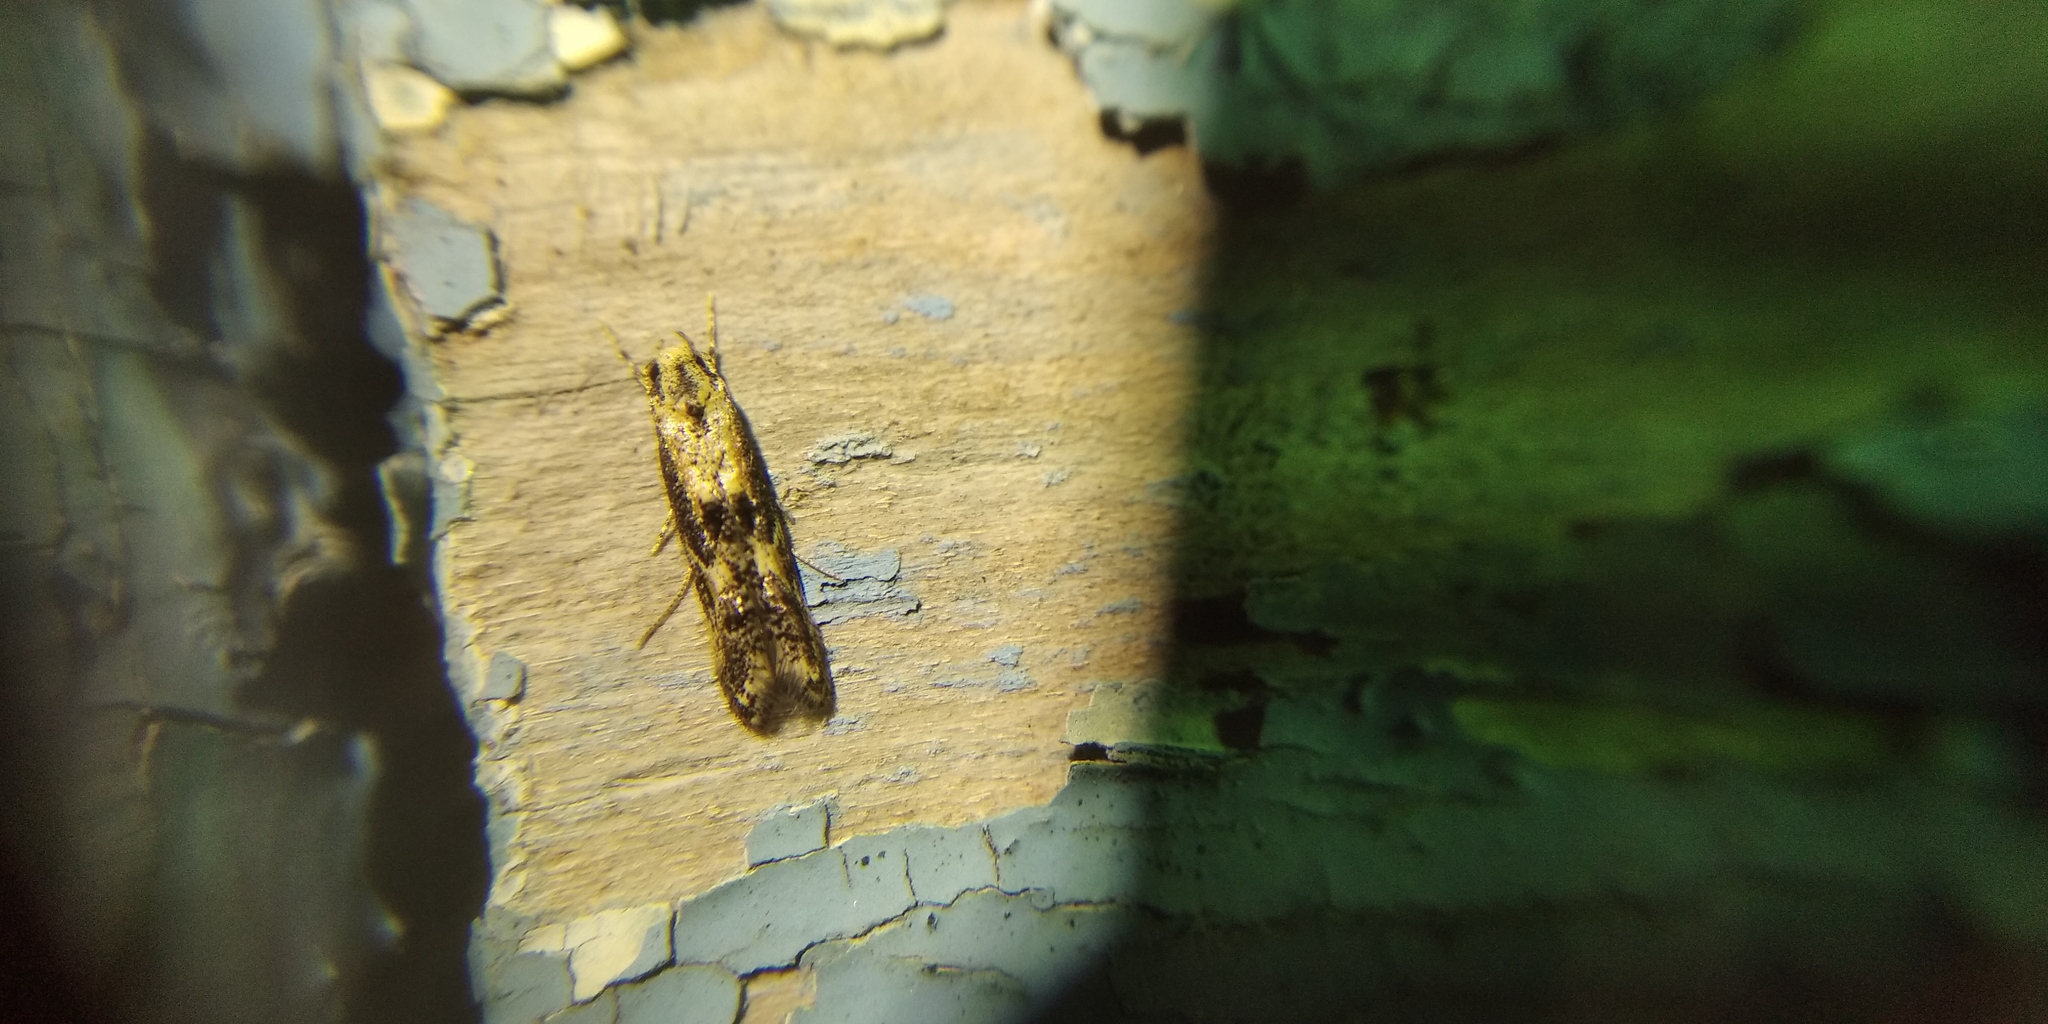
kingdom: Animalia
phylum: Arthropoda
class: Insecta
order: Lepidoptera
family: Elachistidae
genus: Blastodacna
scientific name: Blastodacna atra
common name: Apple pith moth
